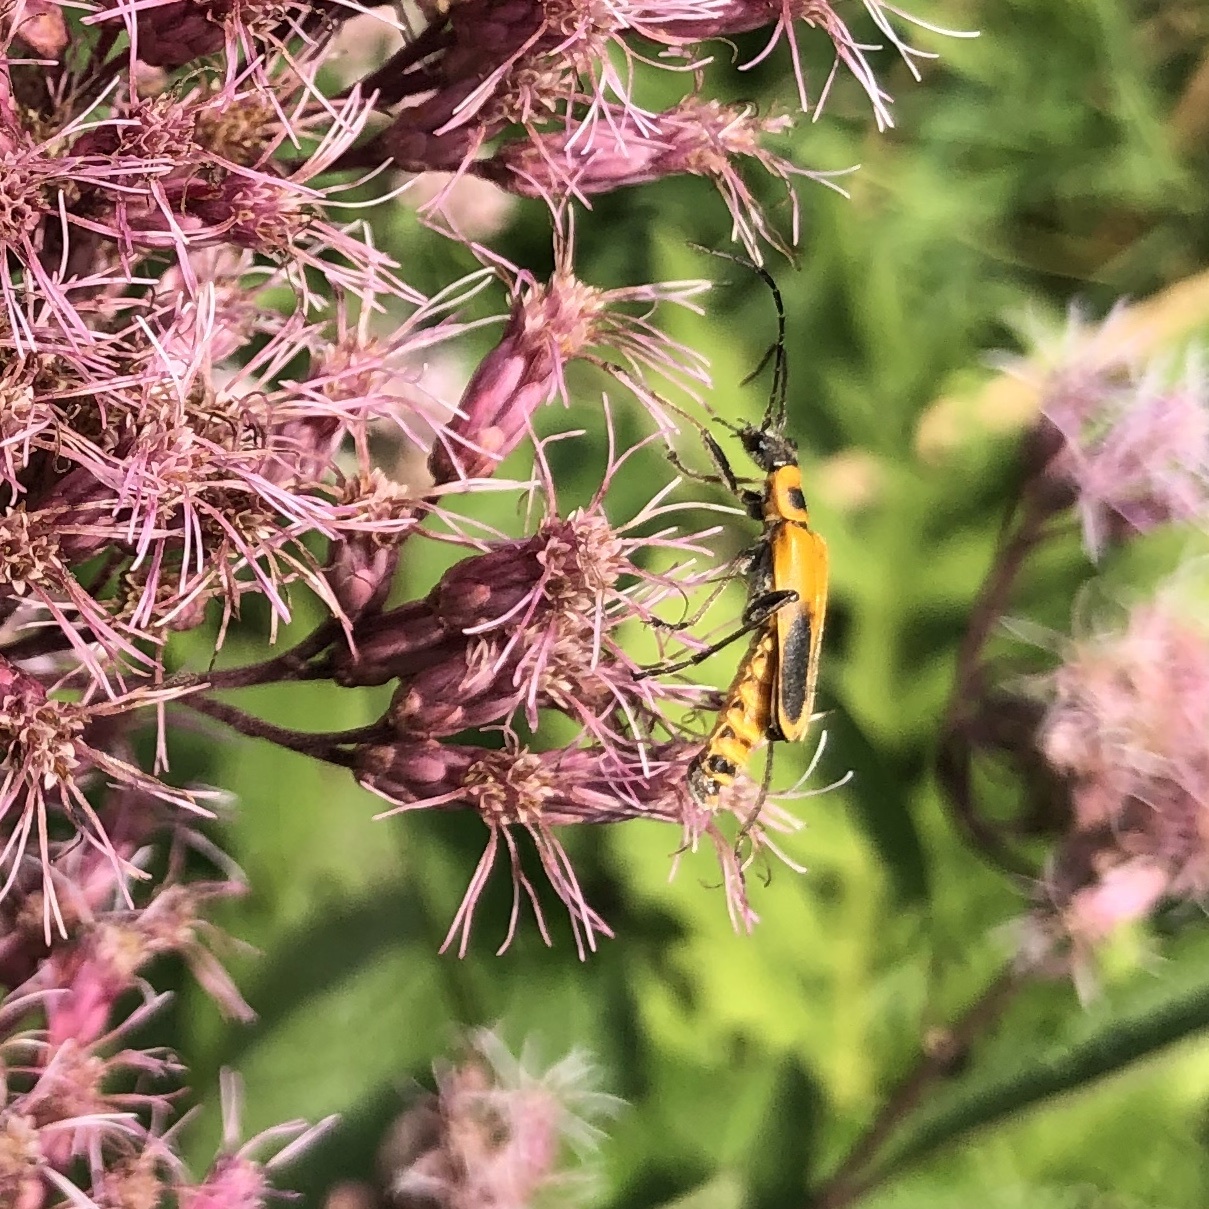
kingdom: Animalia
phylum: Arthropoda
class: Insecta
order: Coleoptera
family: Cantharidae
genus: Chauliognathus
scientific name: Chauliognathus pensylvanicus
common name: Goldenrod soldier beetle
